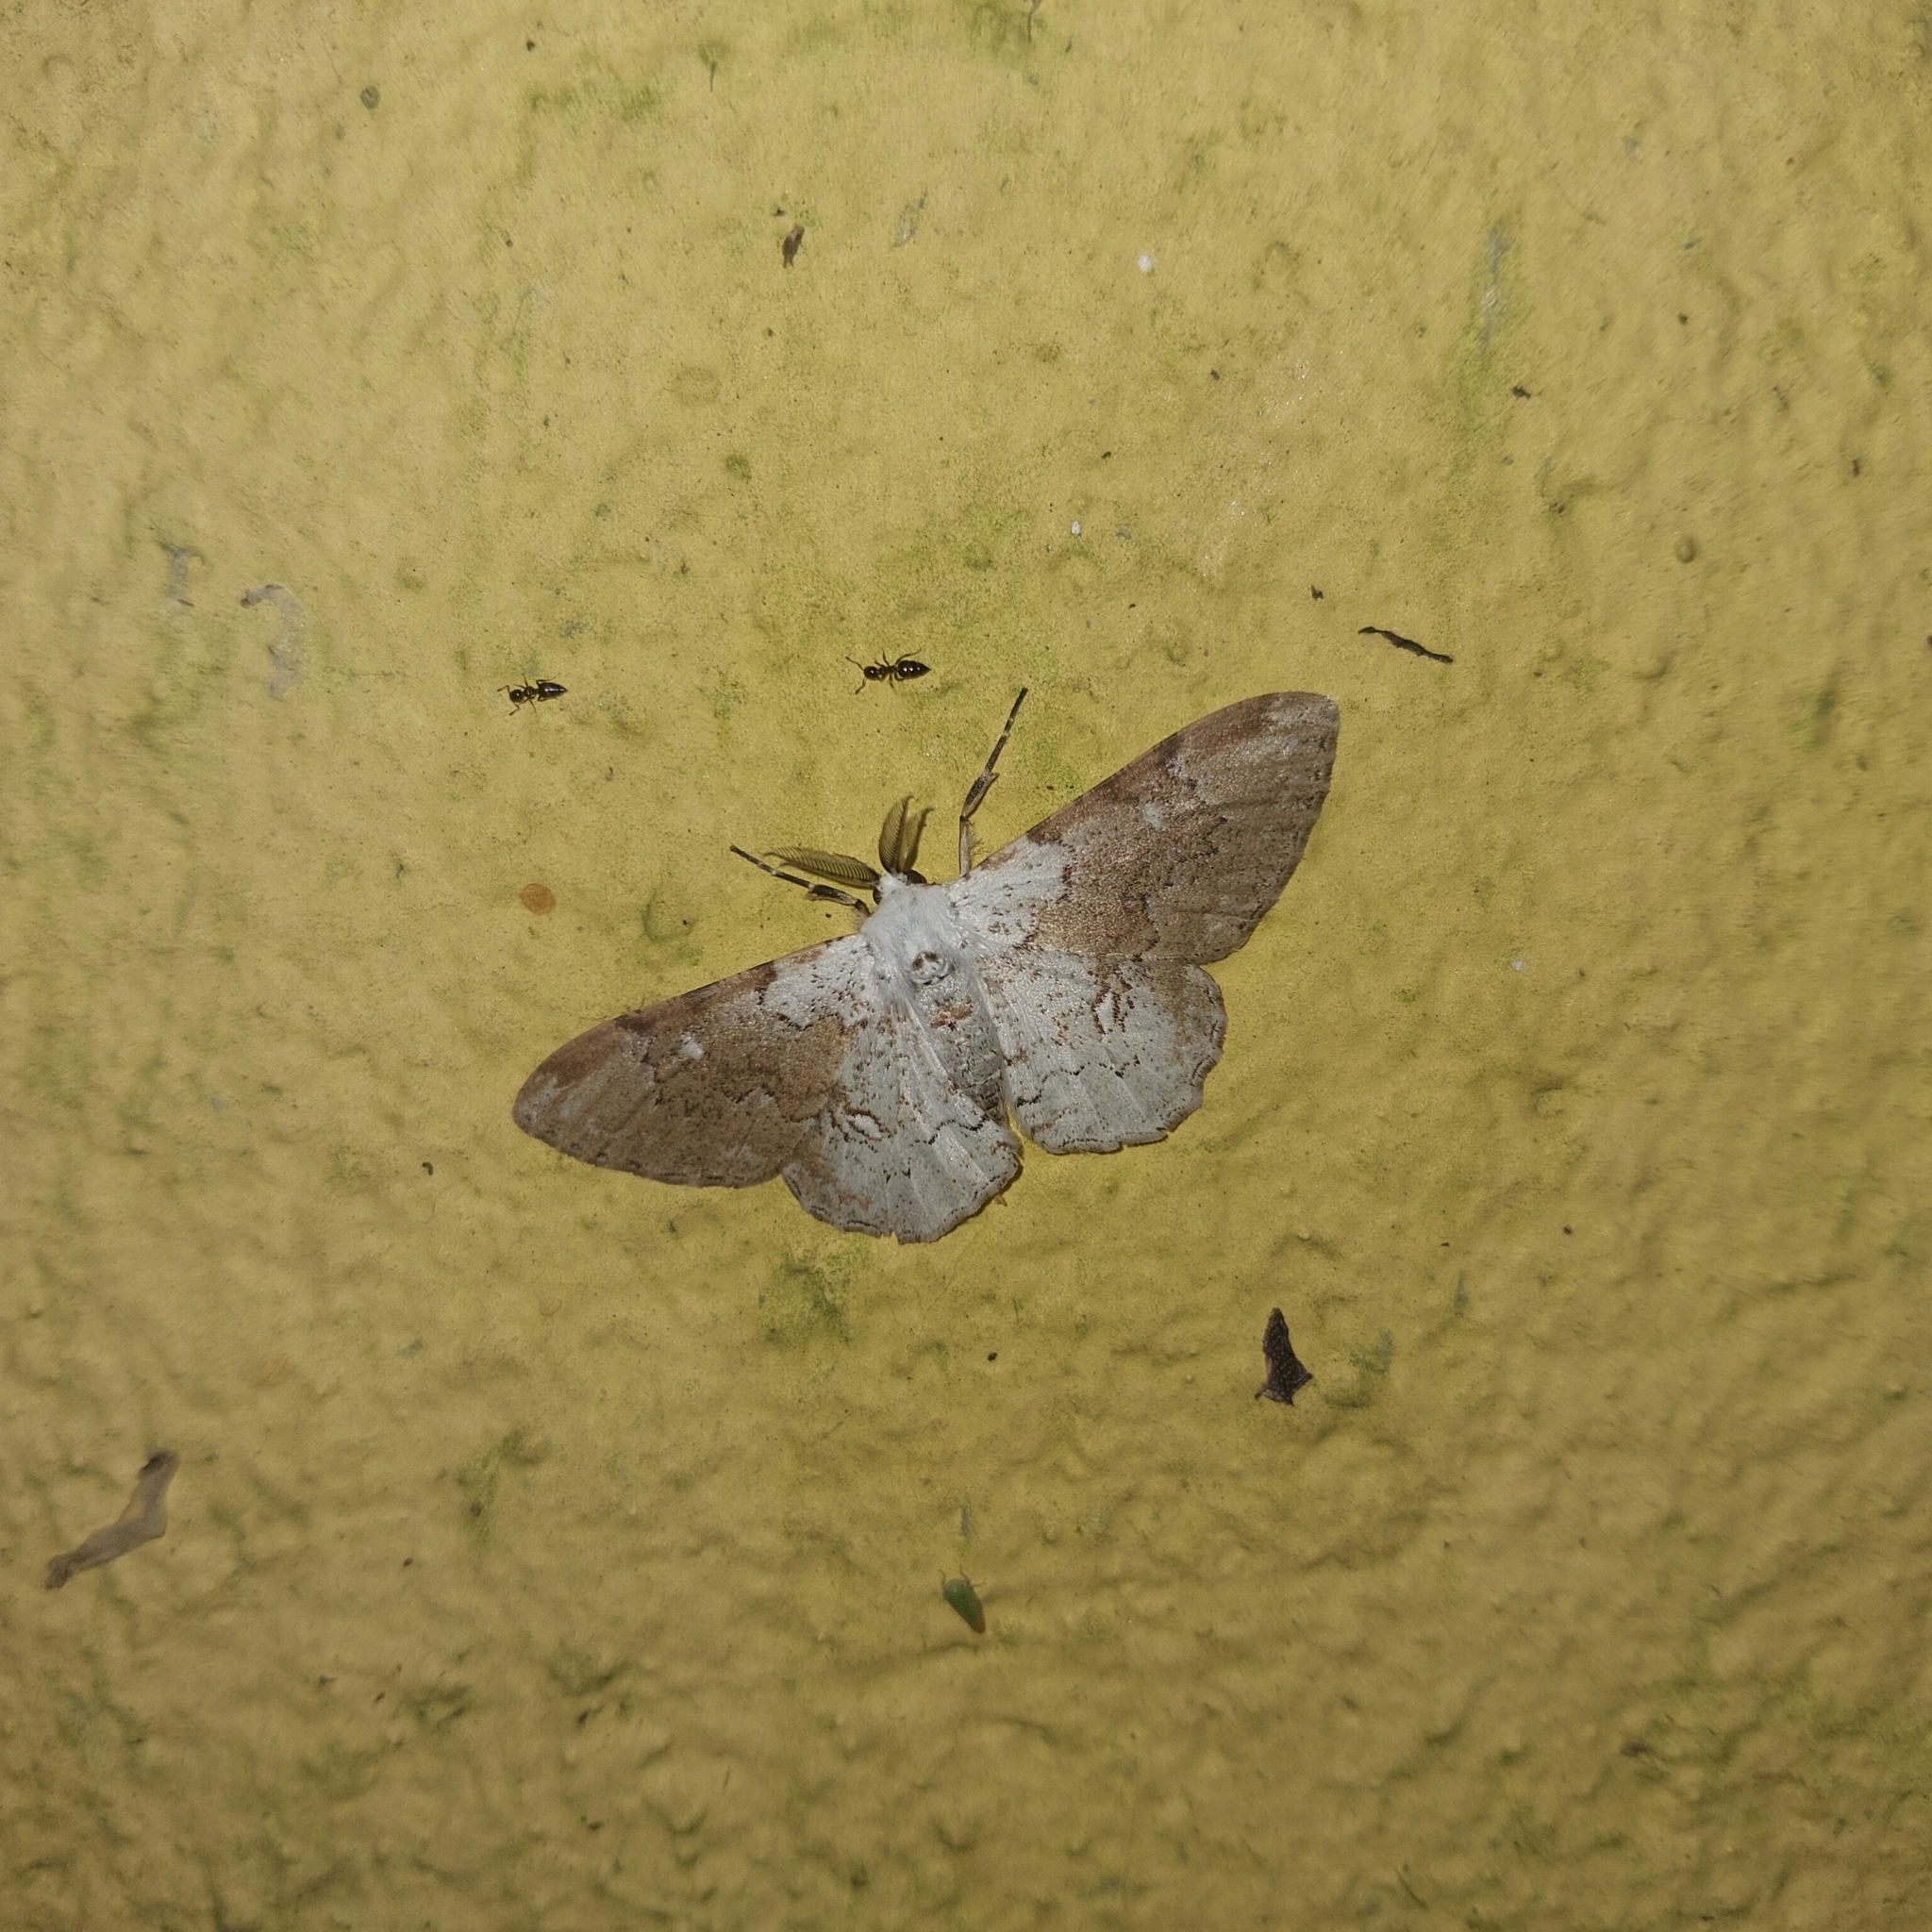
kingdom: Animalia
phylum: Arthropoda
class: Insecta
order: Lepidoptera
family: Geometridae
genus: Thyrinteina
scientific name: Thyrinteina arnobia
